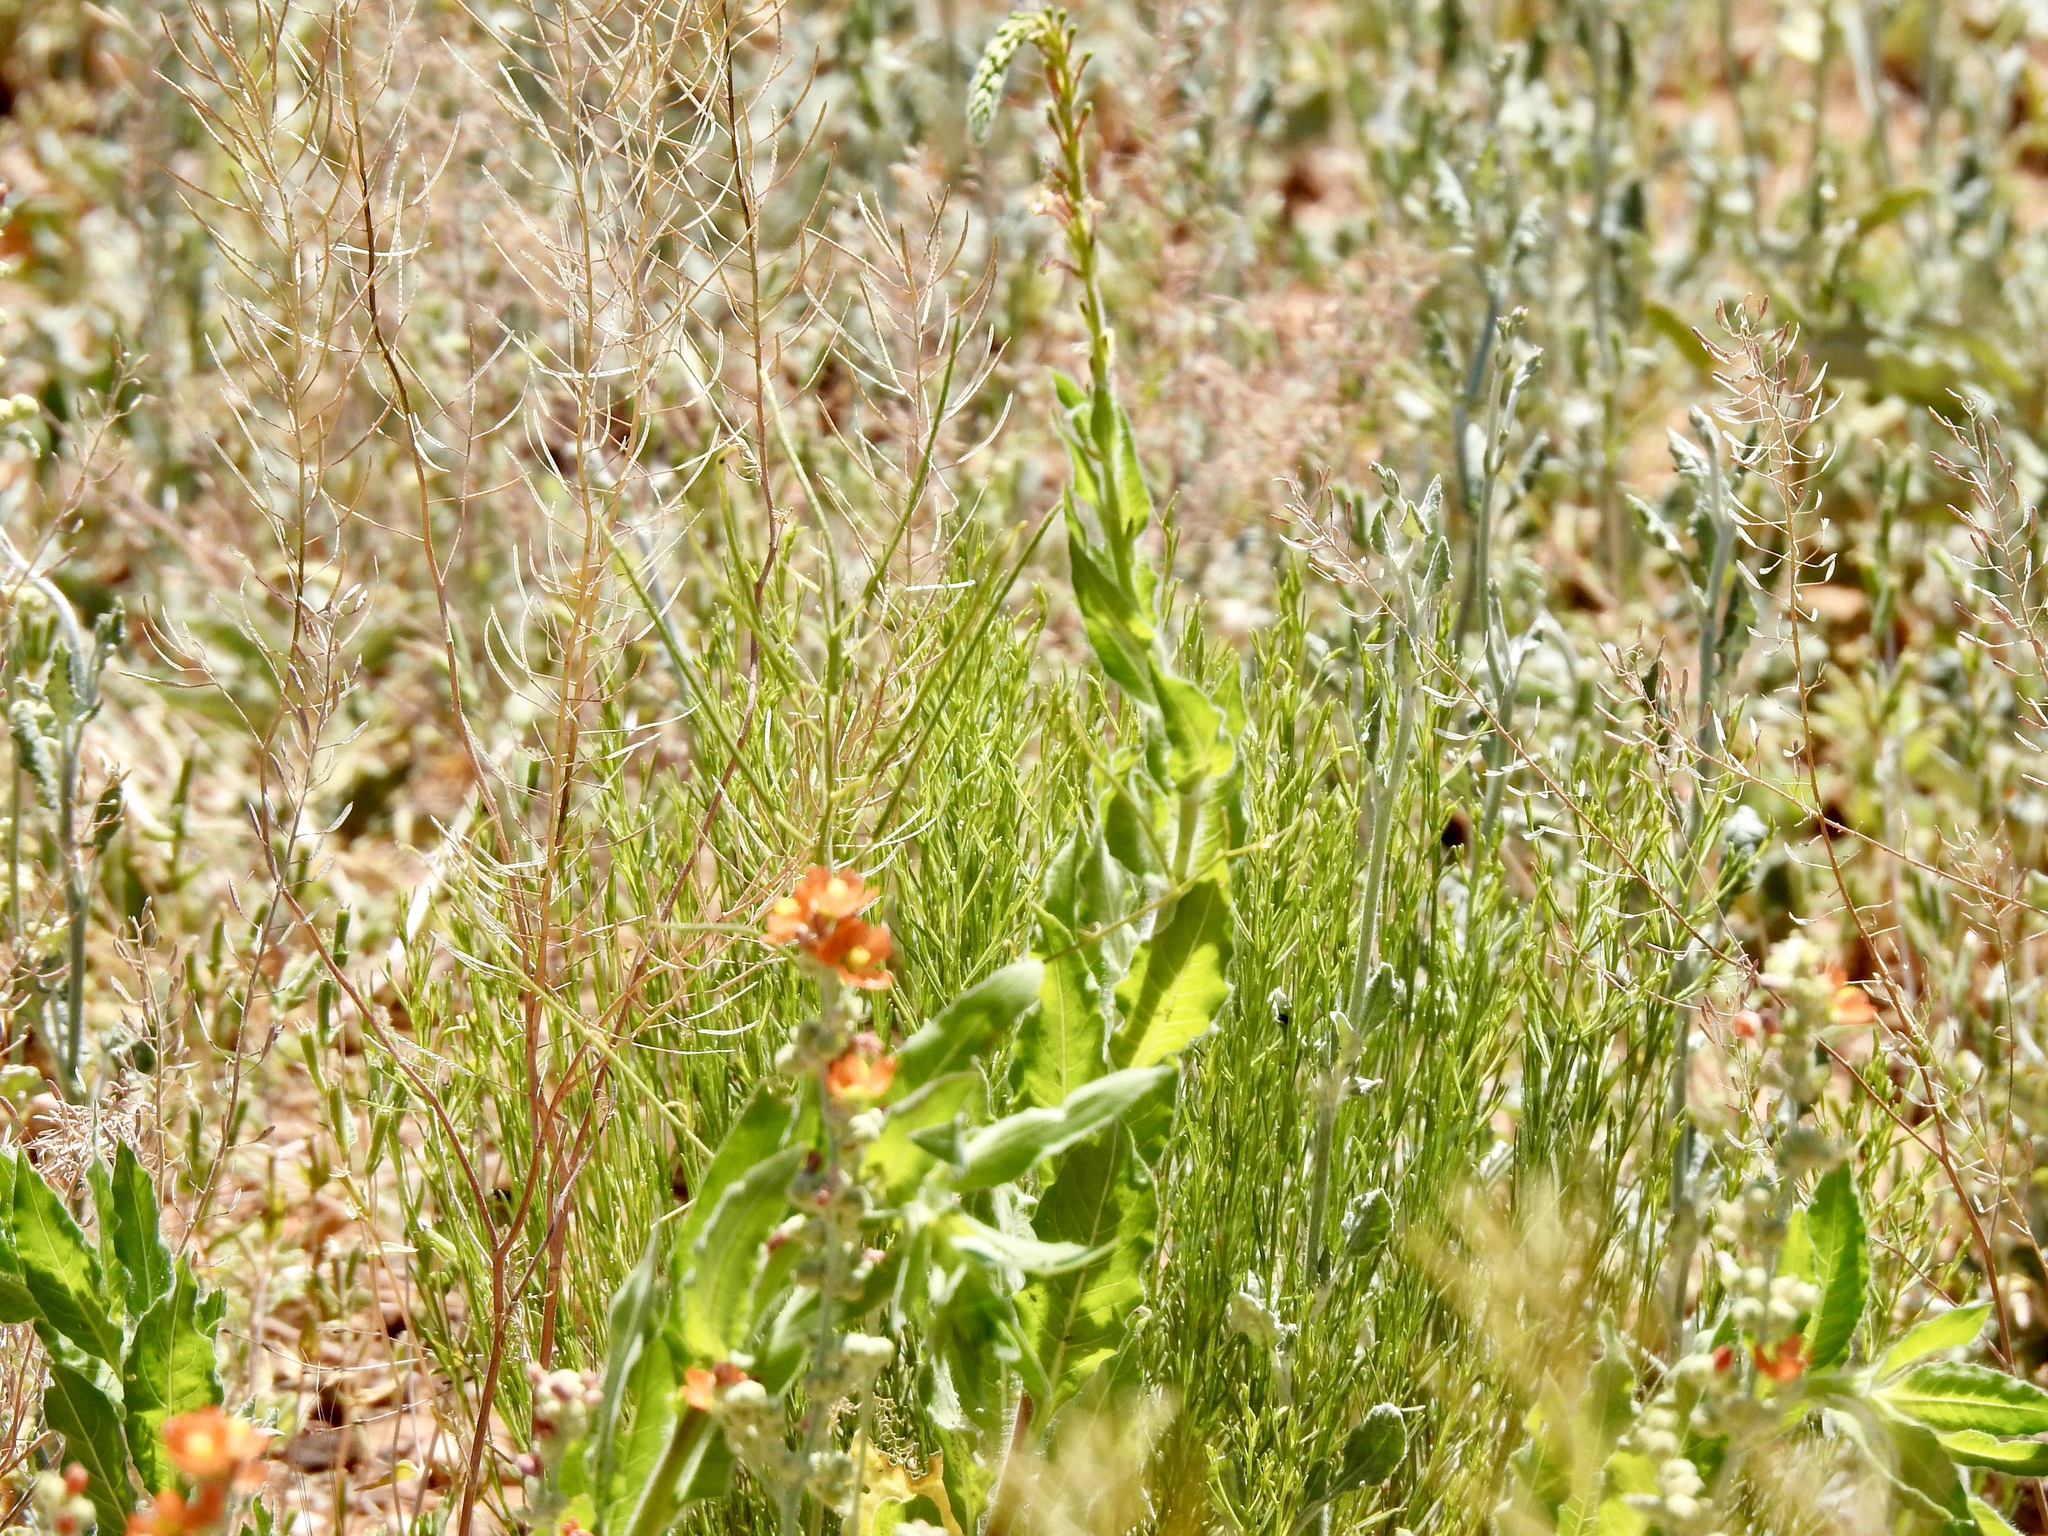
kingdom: Plantae
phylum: Tracheophyta
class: Magnoliopsida
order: Malvales
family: Malvaceae
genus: Sphaeralcea
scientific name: Sphaeralcea coccinea
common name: Moss-rose
